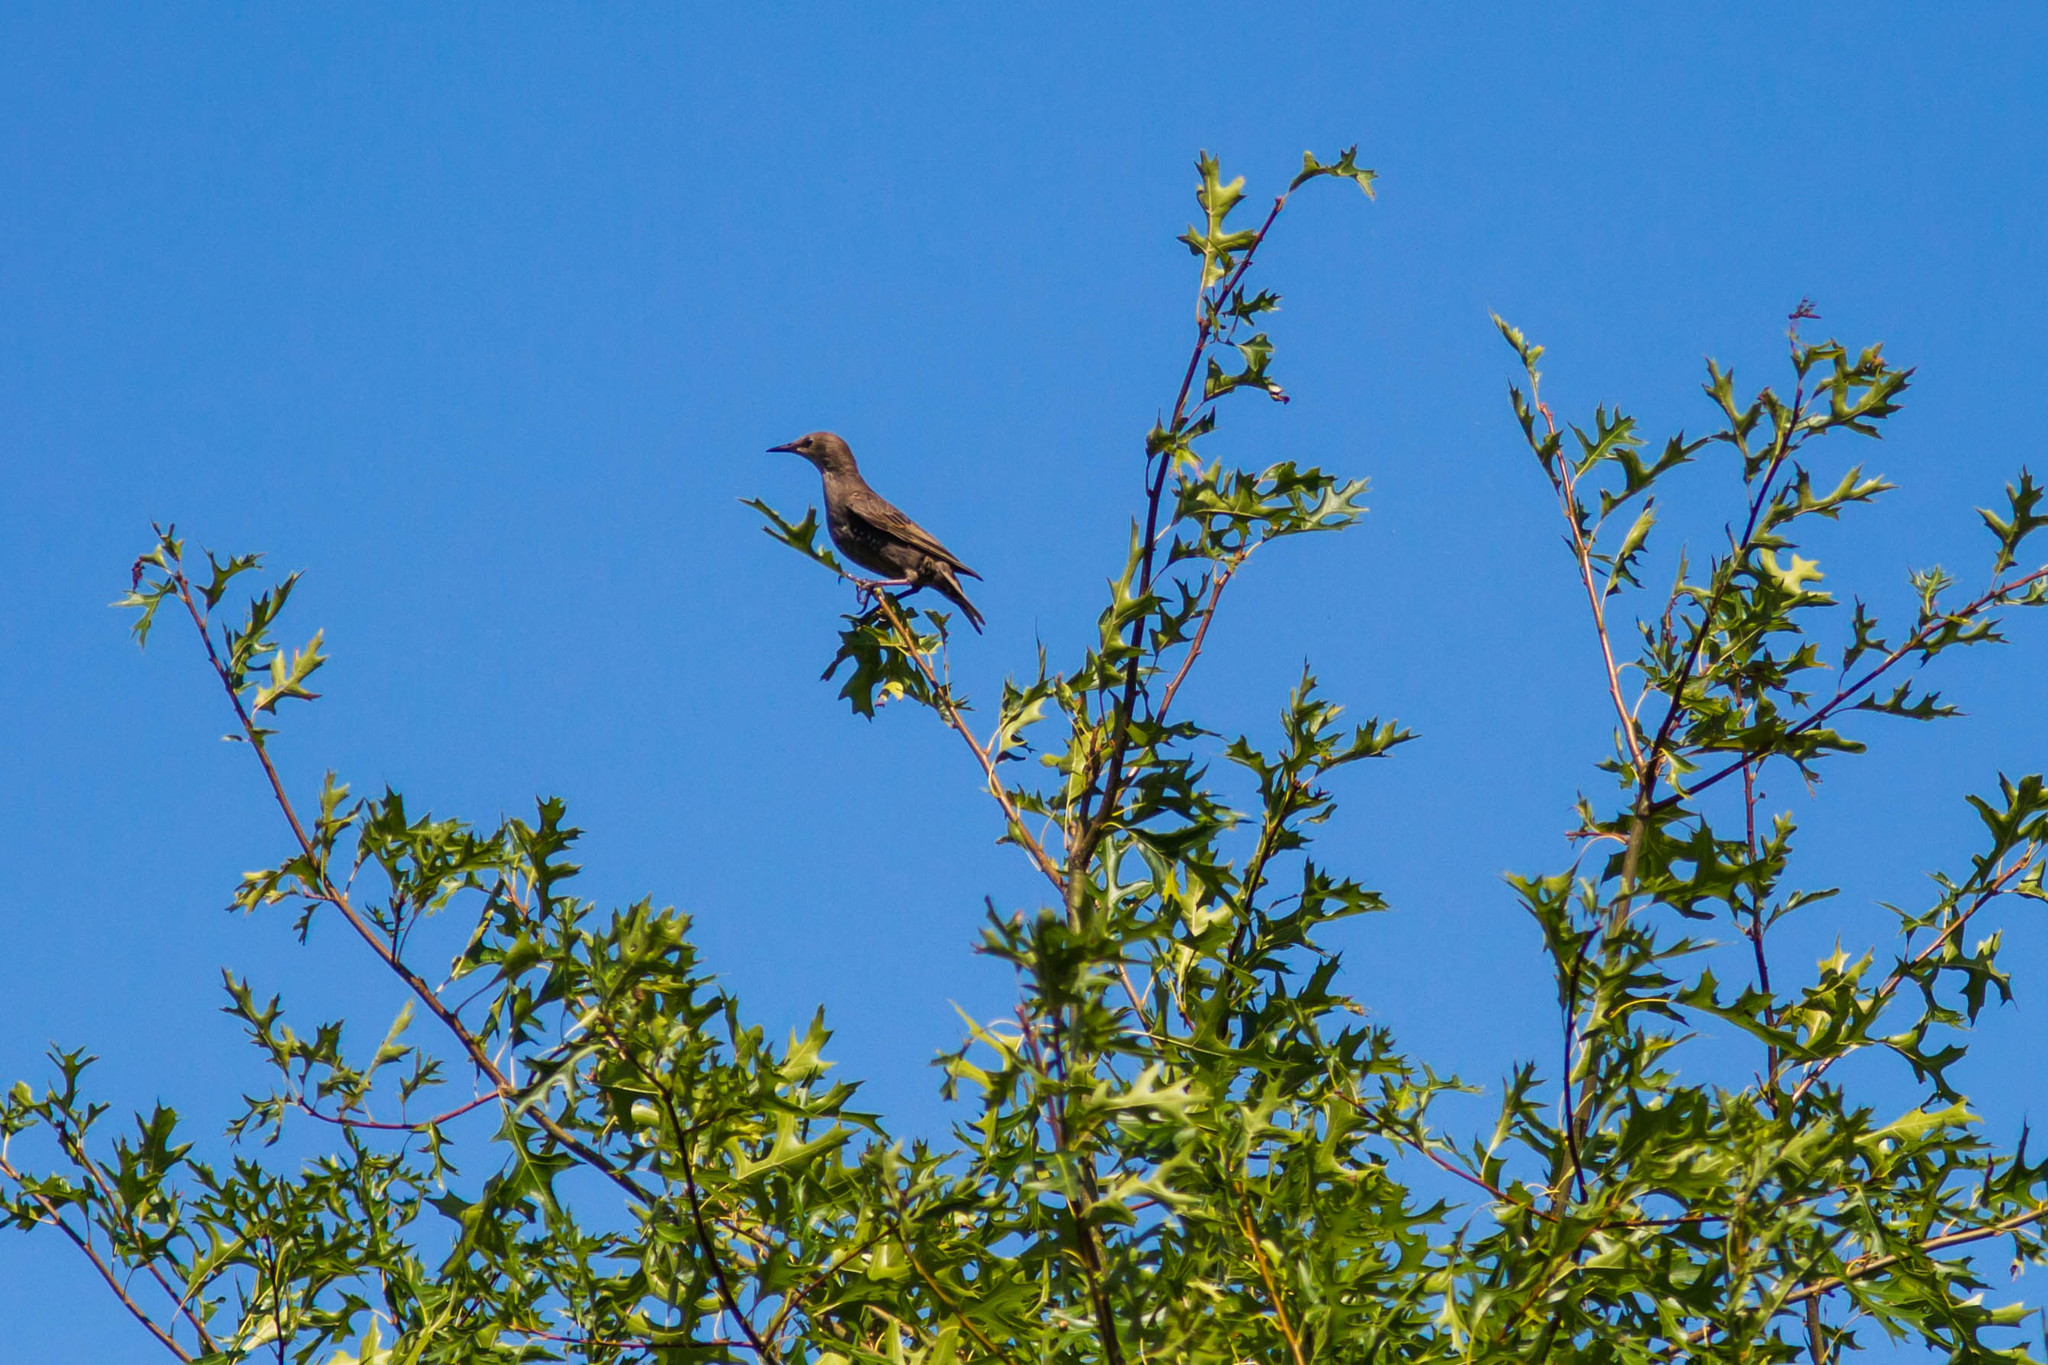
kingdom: Animalia
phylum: Chordata
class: Aves
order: Passeriformes
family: Sturnidae
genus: Sturnus
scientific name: Sturnus vulgaris
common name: Common starling
